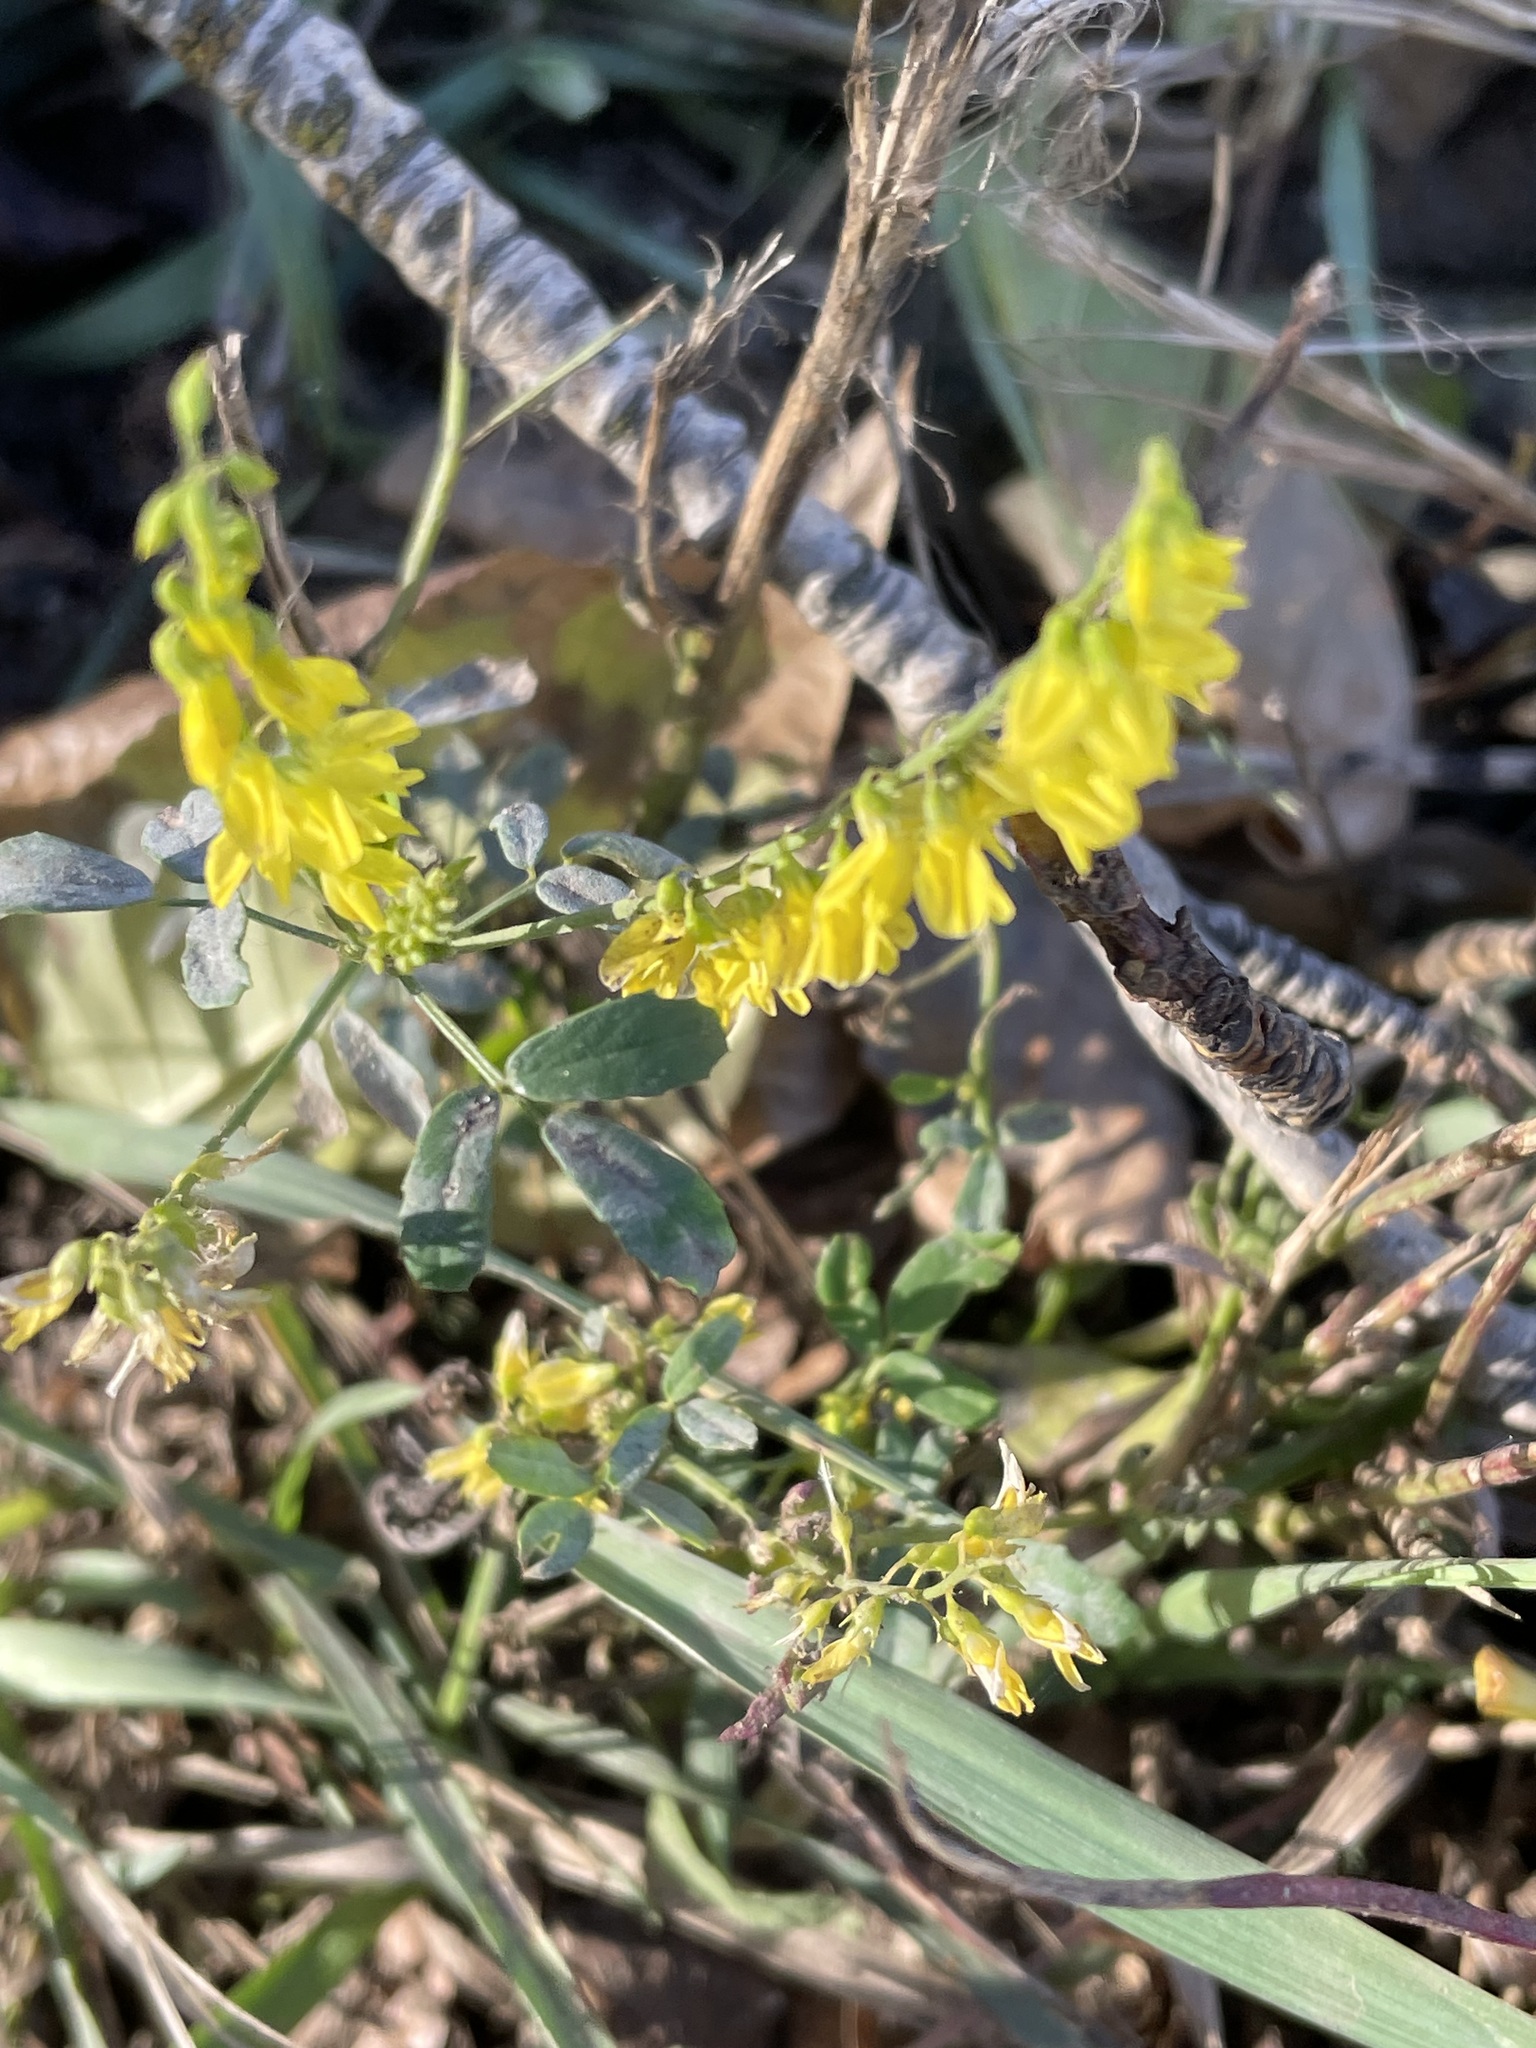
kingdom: Plantae
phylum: Tracheophyta
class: Magnoliopsida
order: Fabales
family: Fabaceae
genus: Melilotus
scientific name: Melilotus officinalis
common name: Sweetclover
